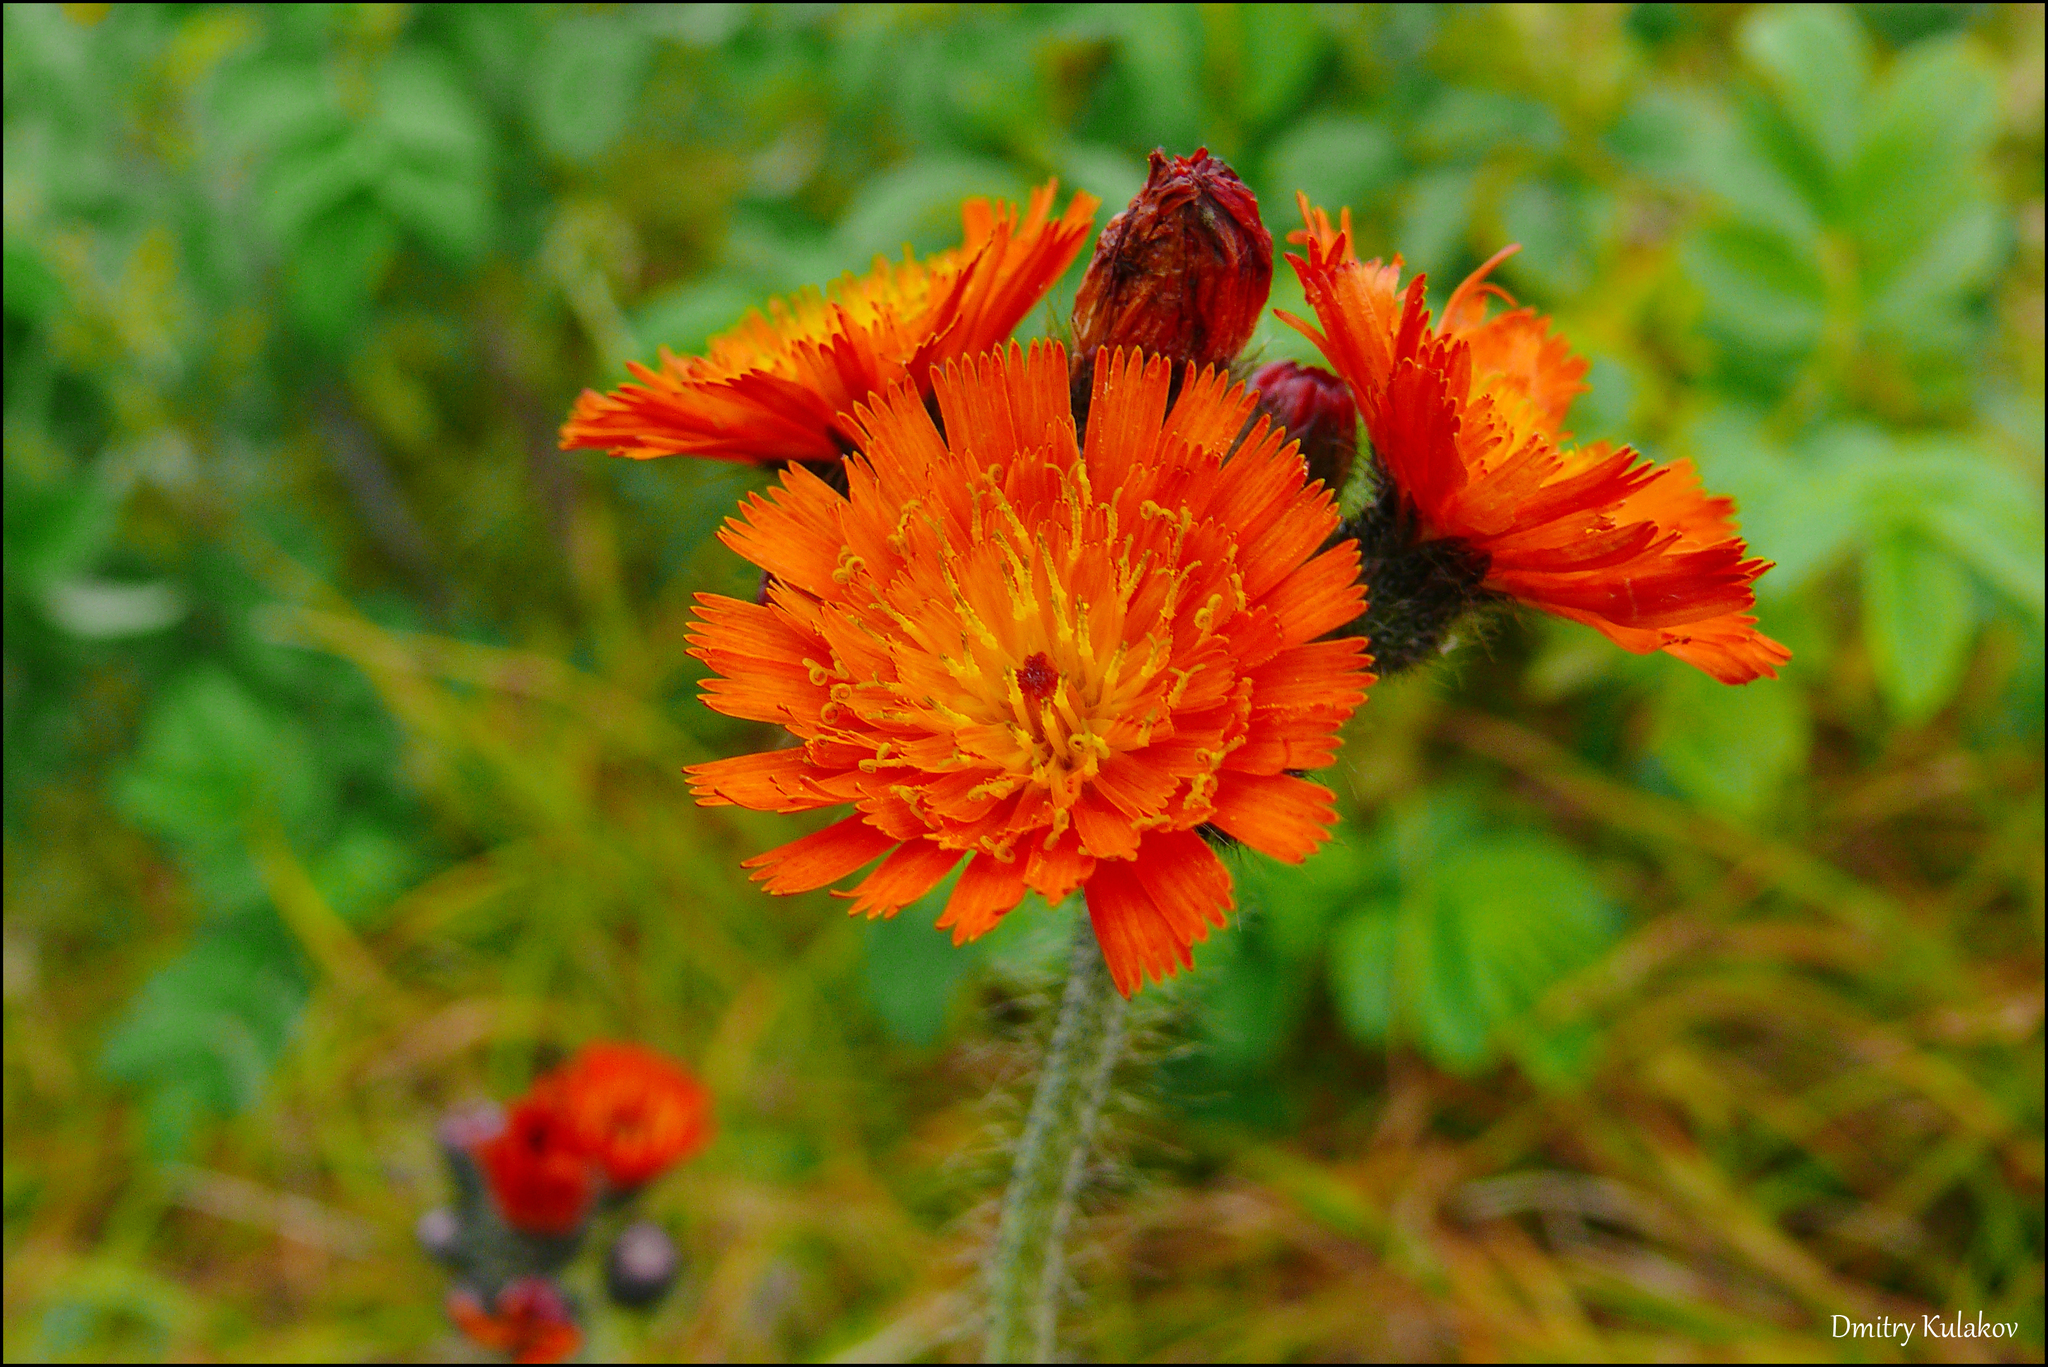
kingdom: Plantae
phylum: Tracheophyta
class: Magnoliopsida
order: Asterales
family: Asteraceae
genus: Pilosella
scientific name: Pilosella aurantiaca
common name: Fox-and-cubs
